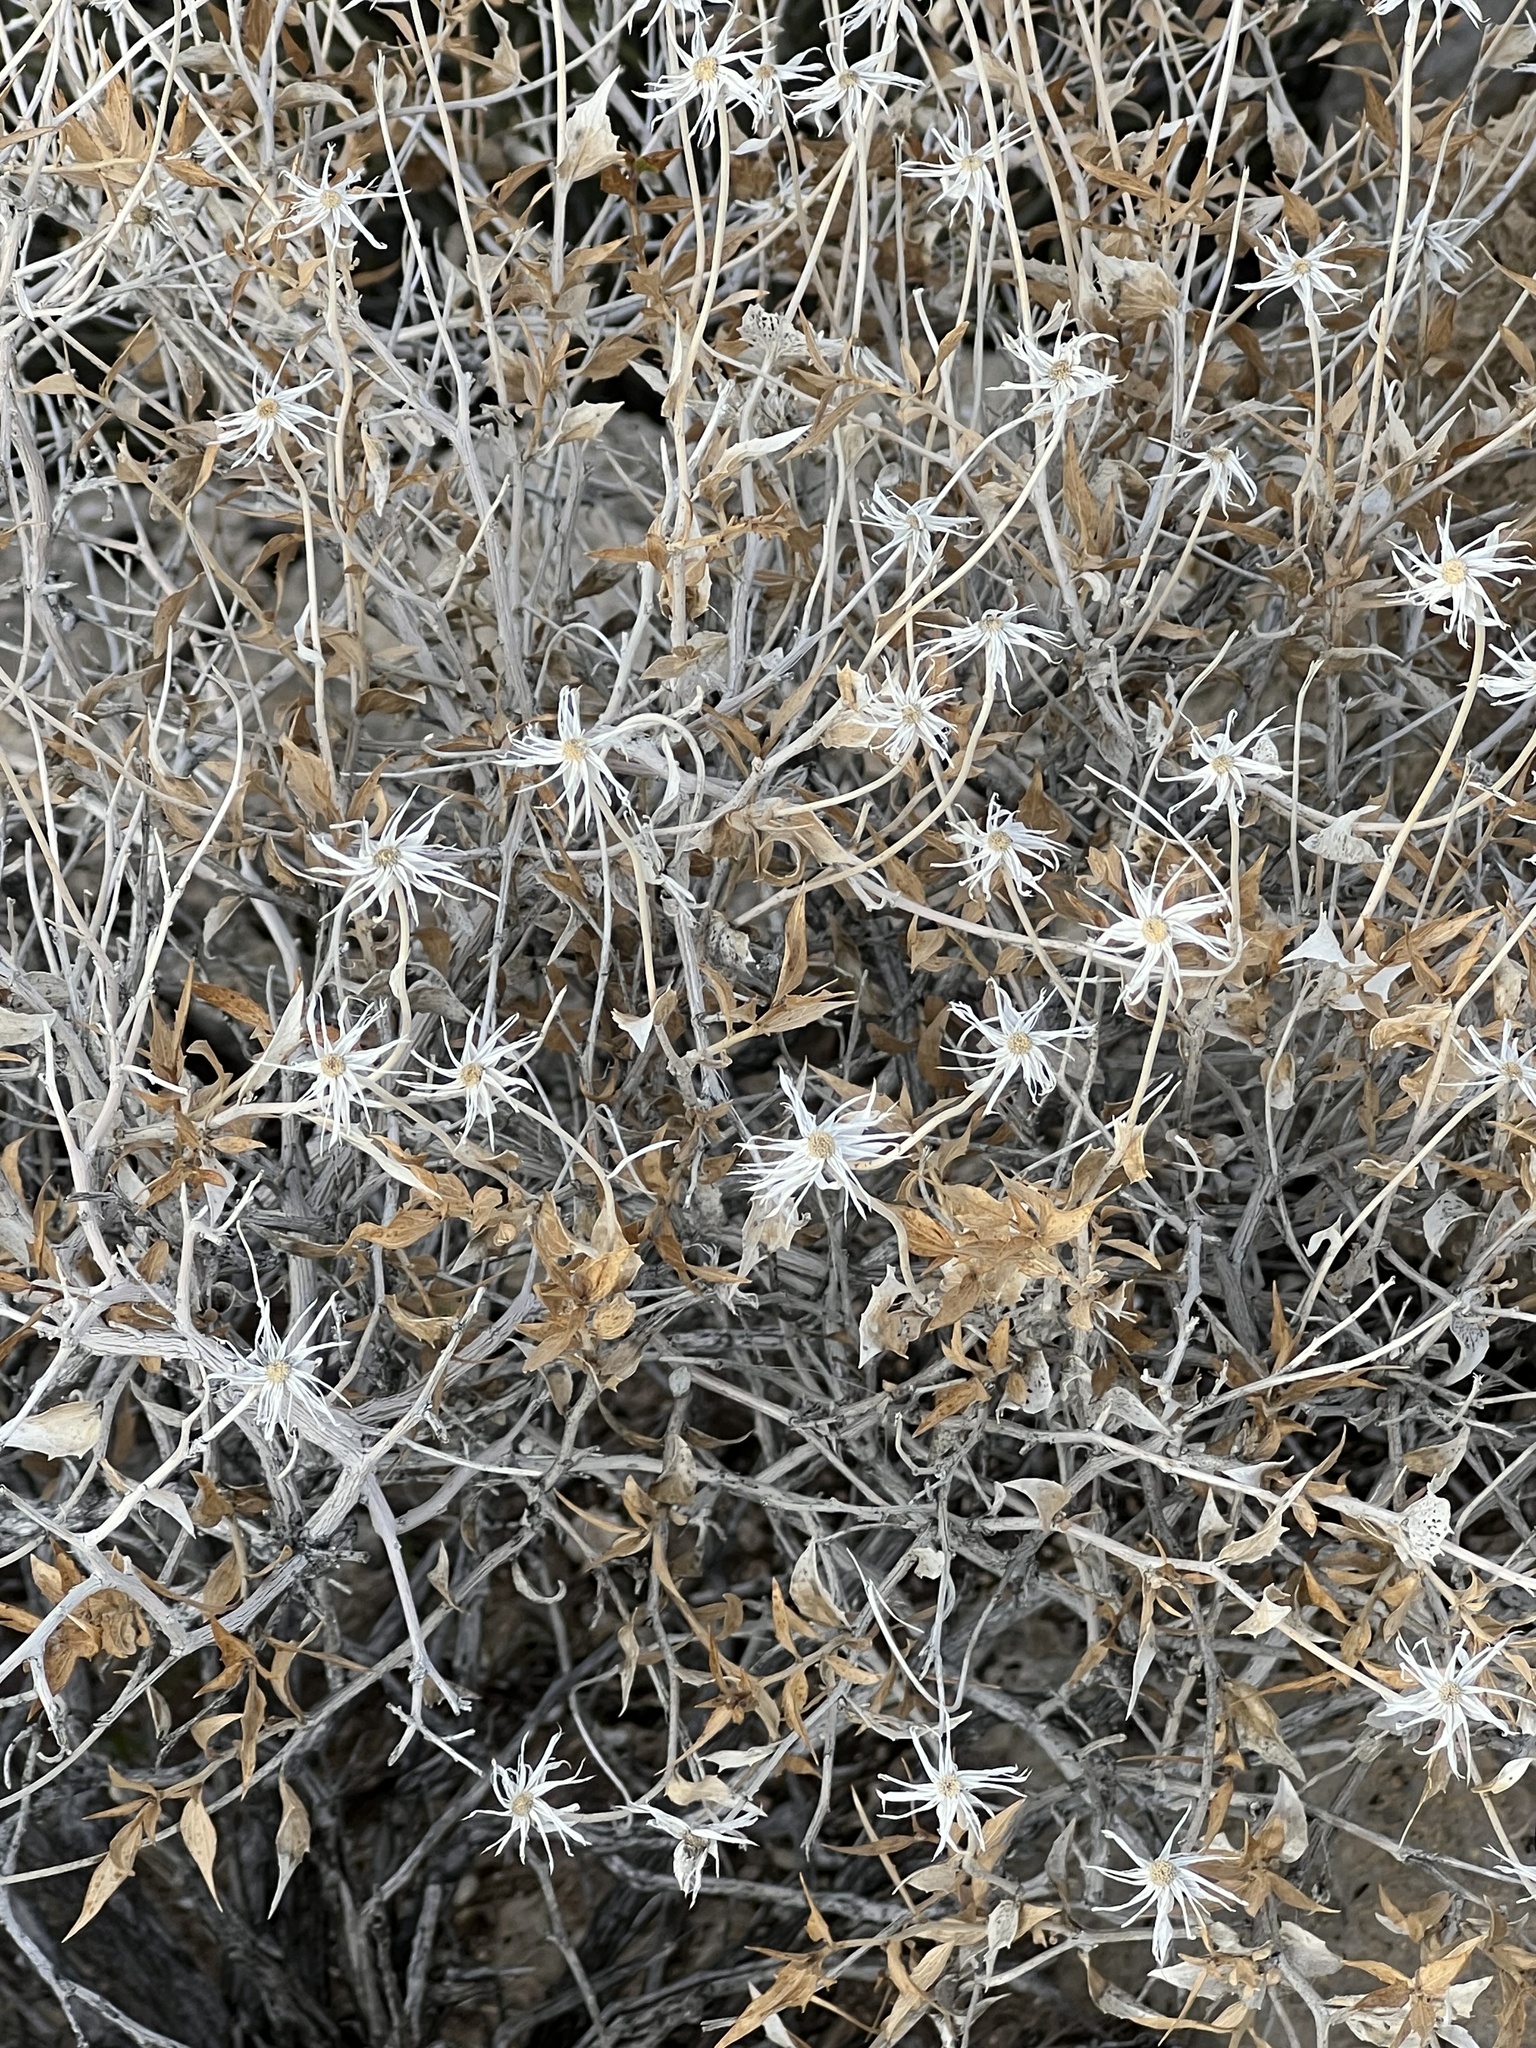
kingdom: Plantae
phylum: Tracheophyta
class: Magnoliopsida
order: Asterales
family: Asteraceae
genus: Brickellia
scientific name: Brickellia atractyloides
